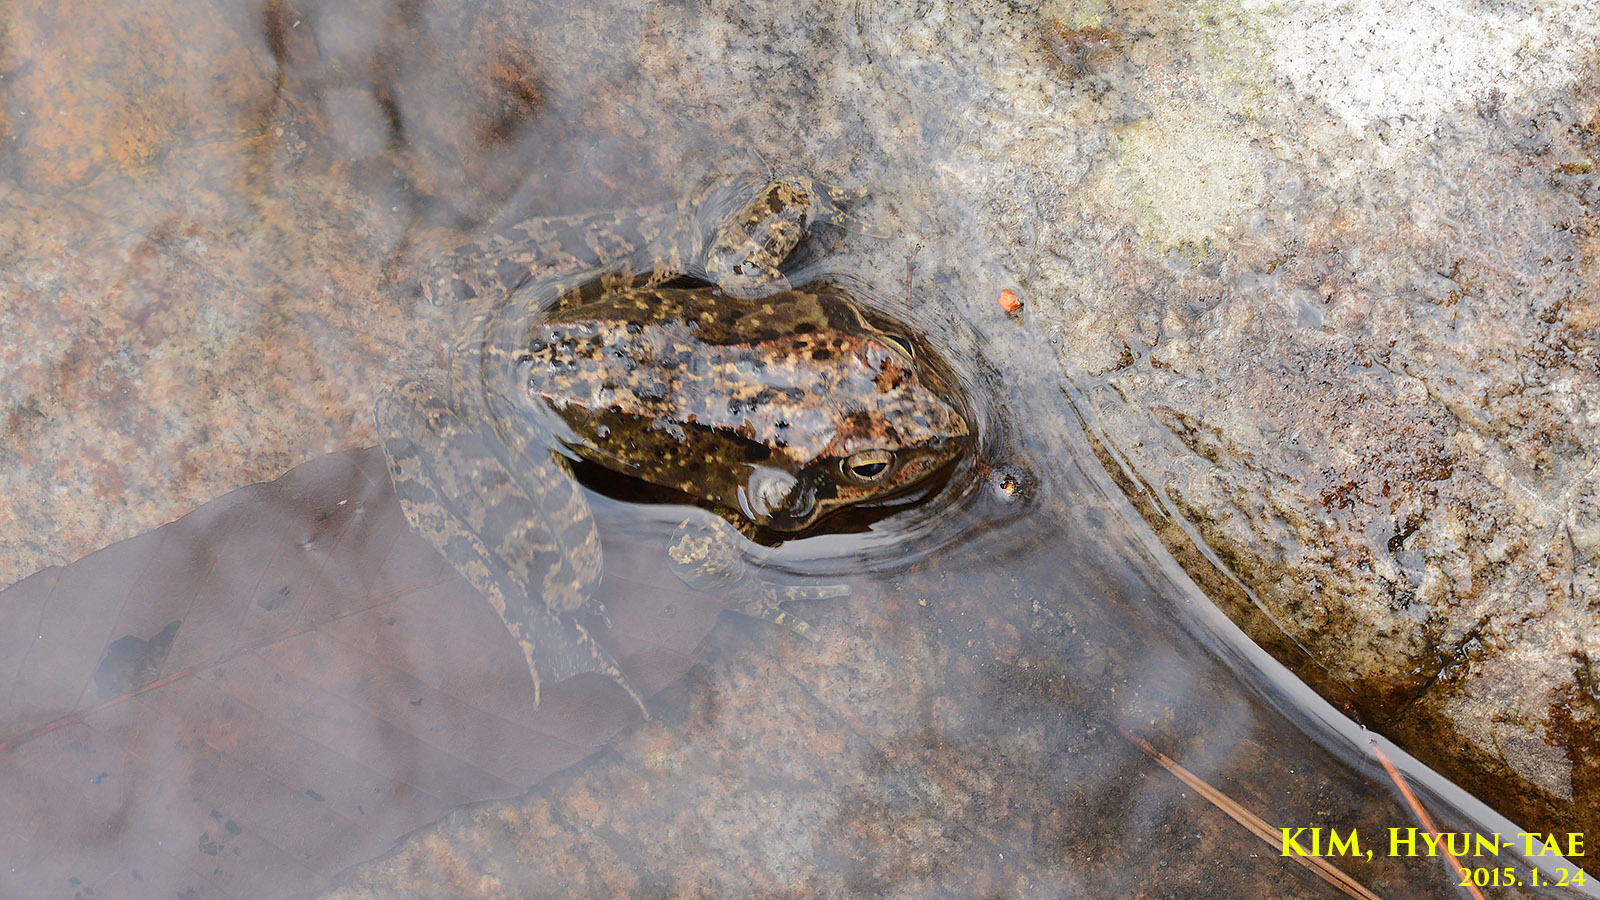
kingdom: Animalia
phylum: Chordata
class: Amphibia
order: Anura
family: Ranidae
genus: Rana
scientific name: Rana dybowskii
